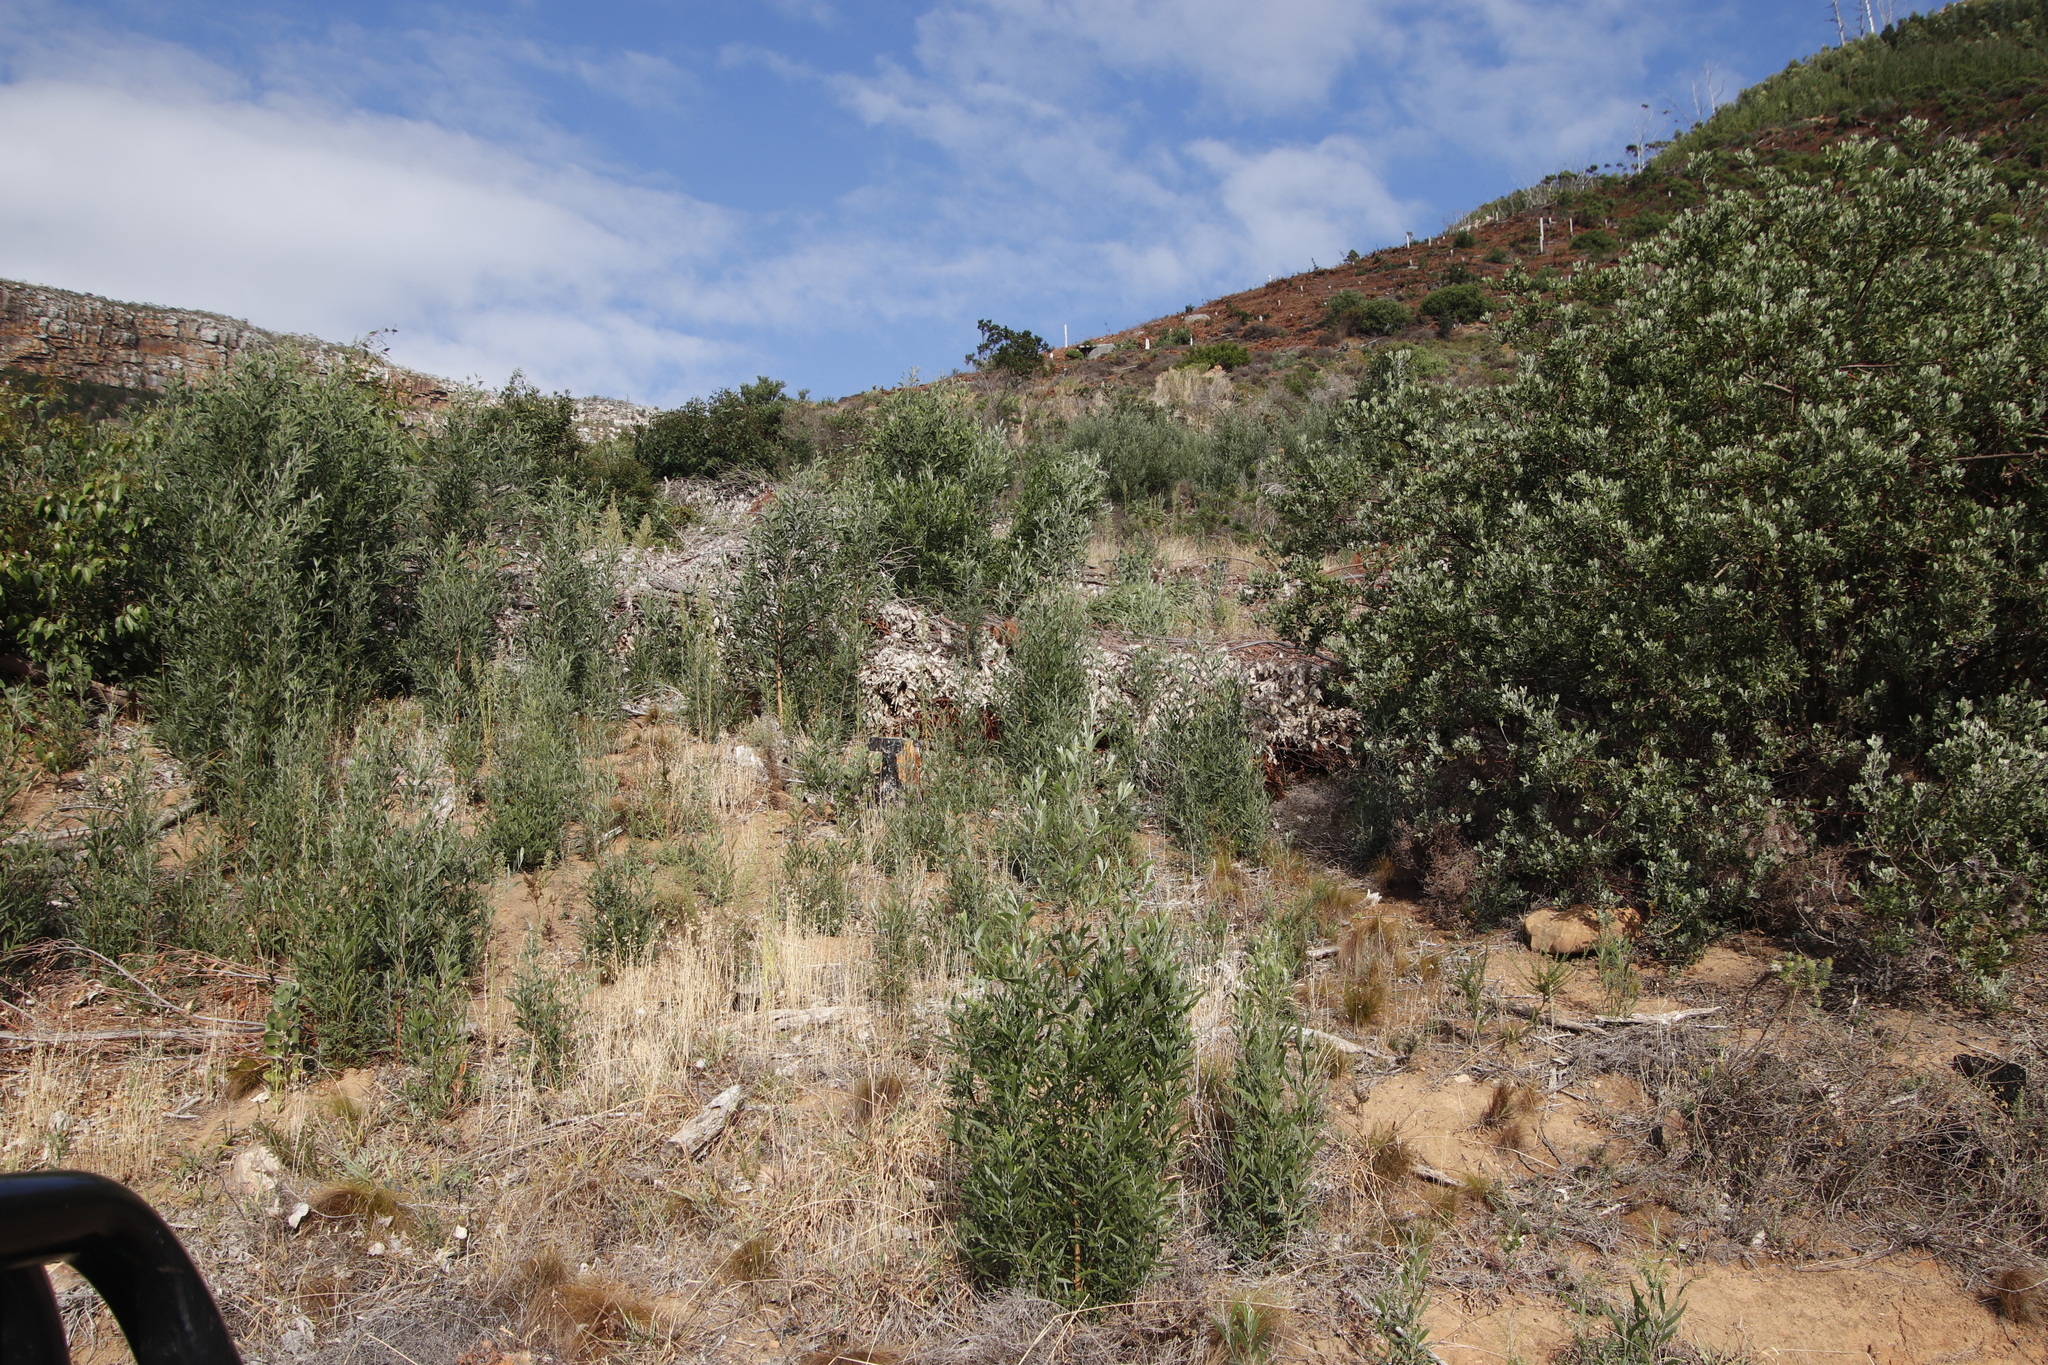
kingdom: Plantae
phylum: Tracheophyta
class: Magnoliopsida
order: Fabales
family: Fabaceae
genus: Acacia
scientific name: Acacia melanoxylon
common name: Blackwood
